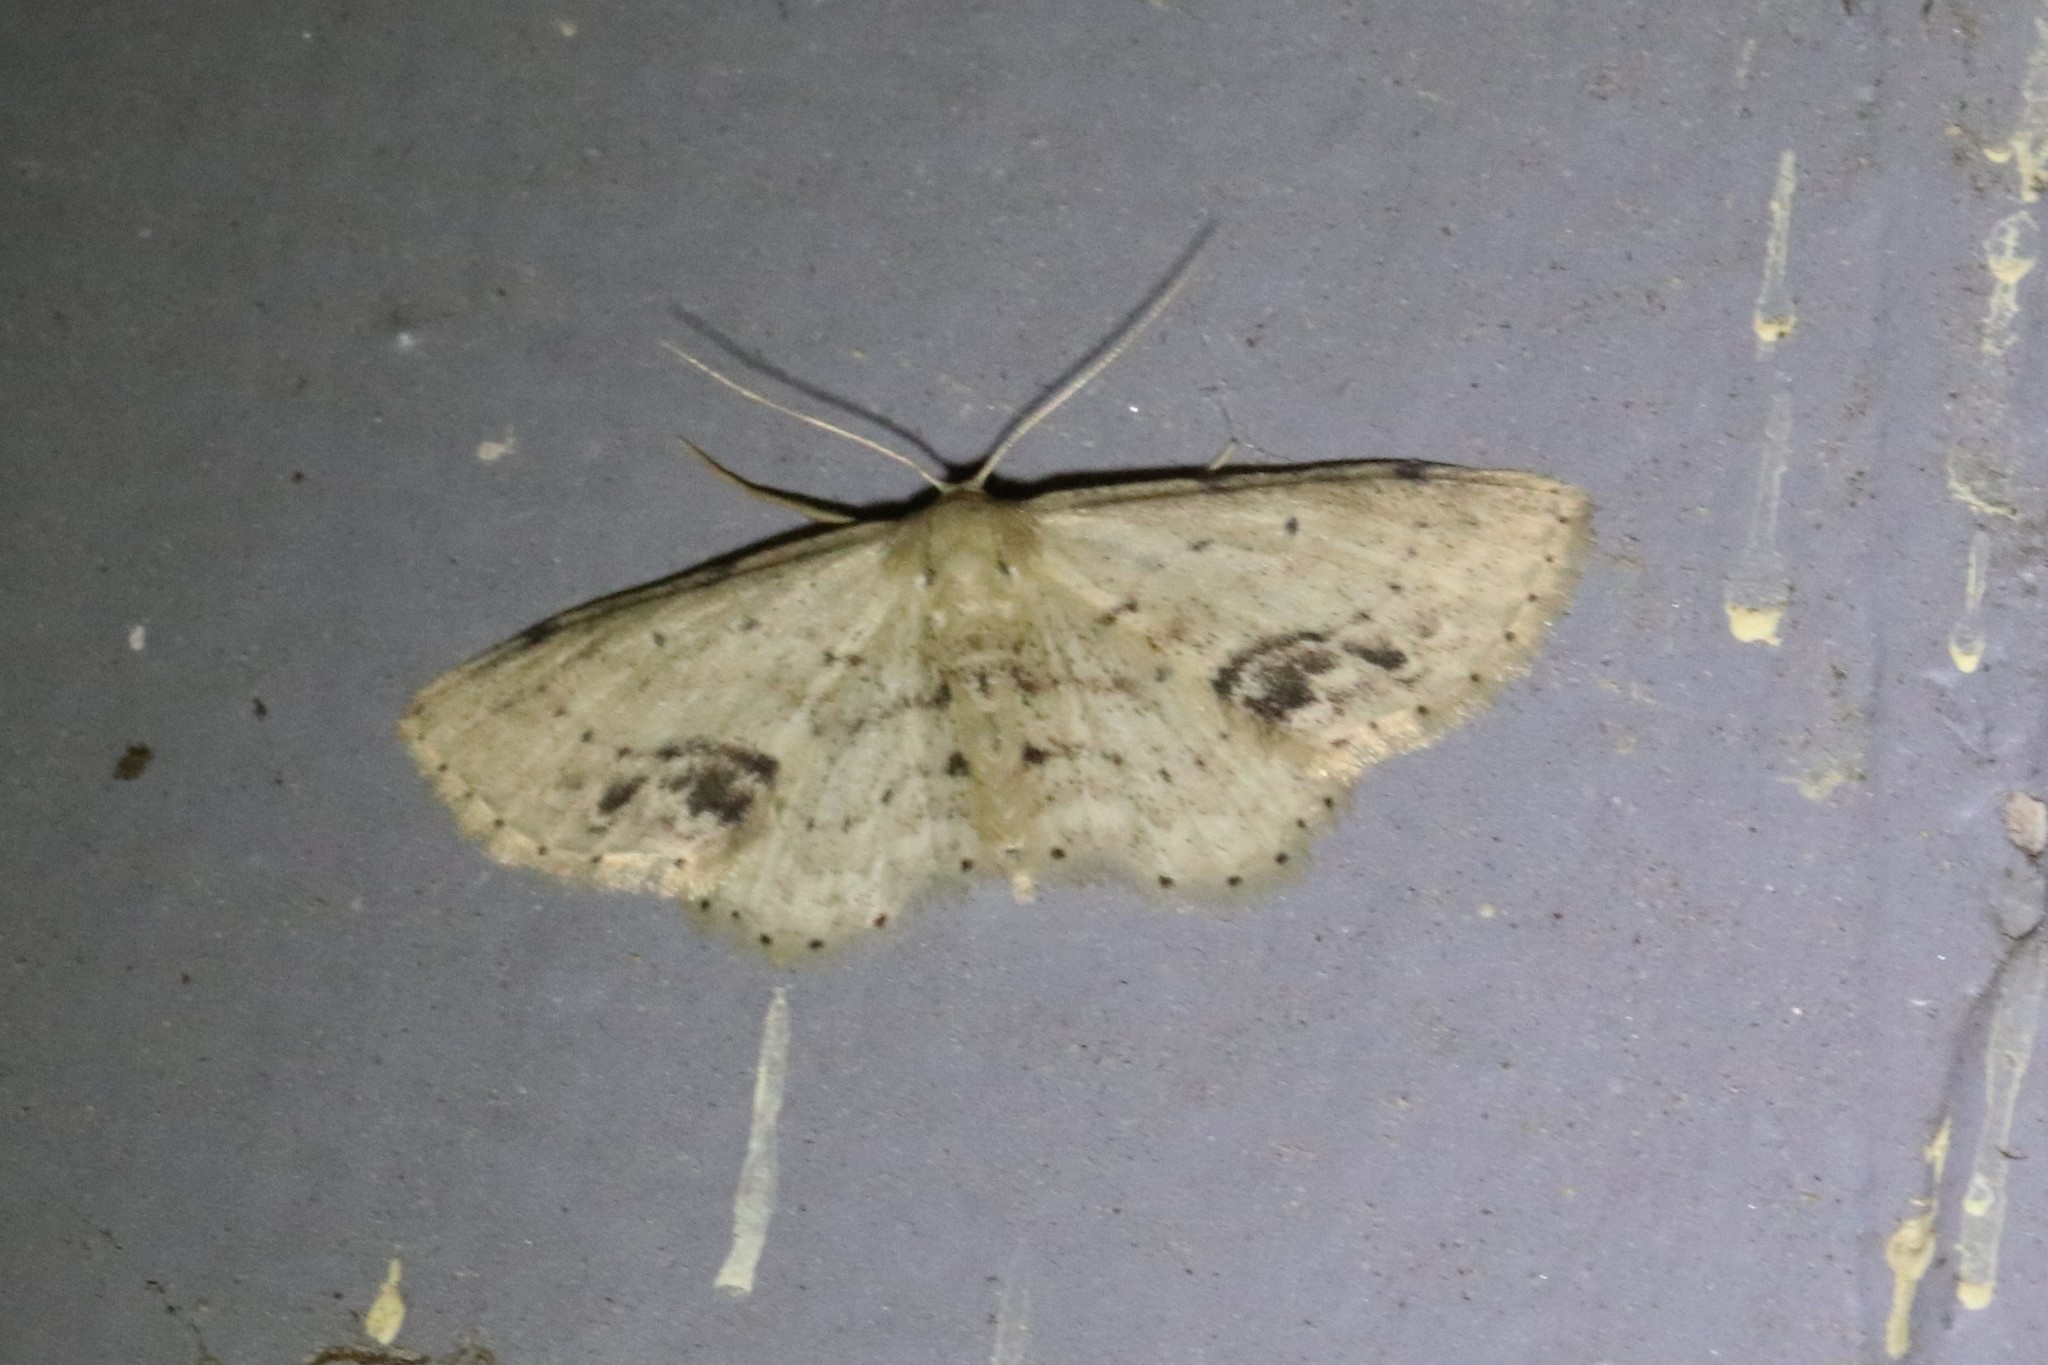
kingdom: Animalia
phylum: Arthropoda
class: Insecta
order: Lepidoptera
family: Geometridae
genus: Idaea
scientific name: Idaea dimidiata
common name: Single-dotted wave
